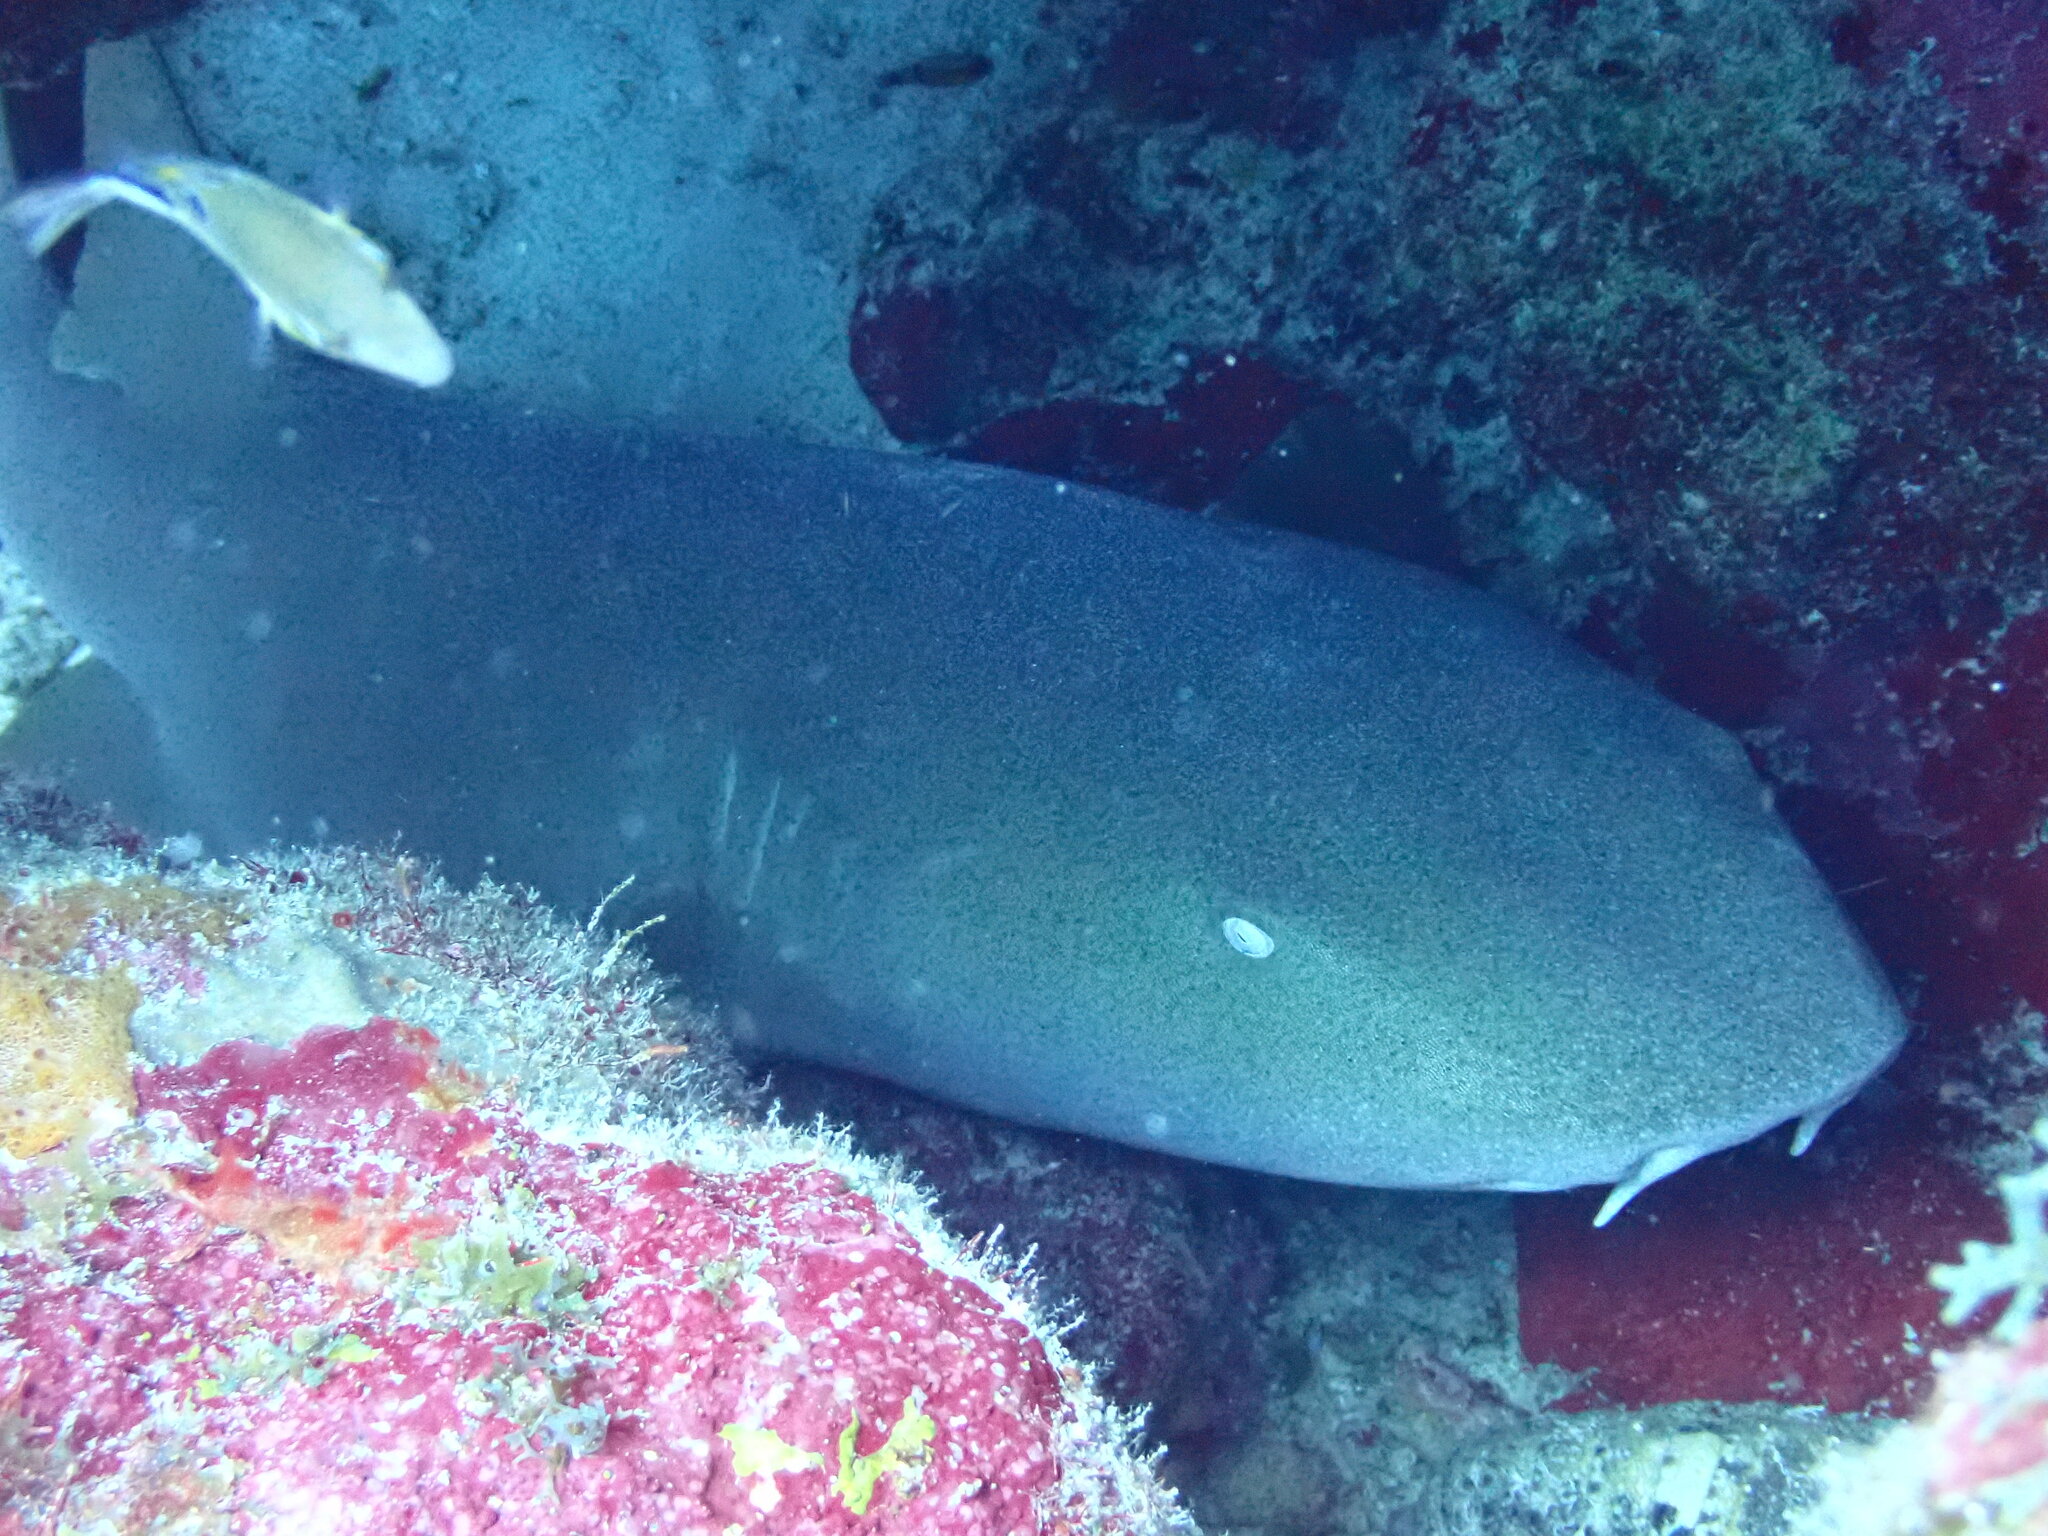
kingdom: Animalia
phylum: Chordata
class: Elasmobranchii
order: Orectolobiformes
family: Ginglymostomatidae
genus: Ginglymostoma
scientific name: Ginglymostoma cirratum
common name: Nurse shark
